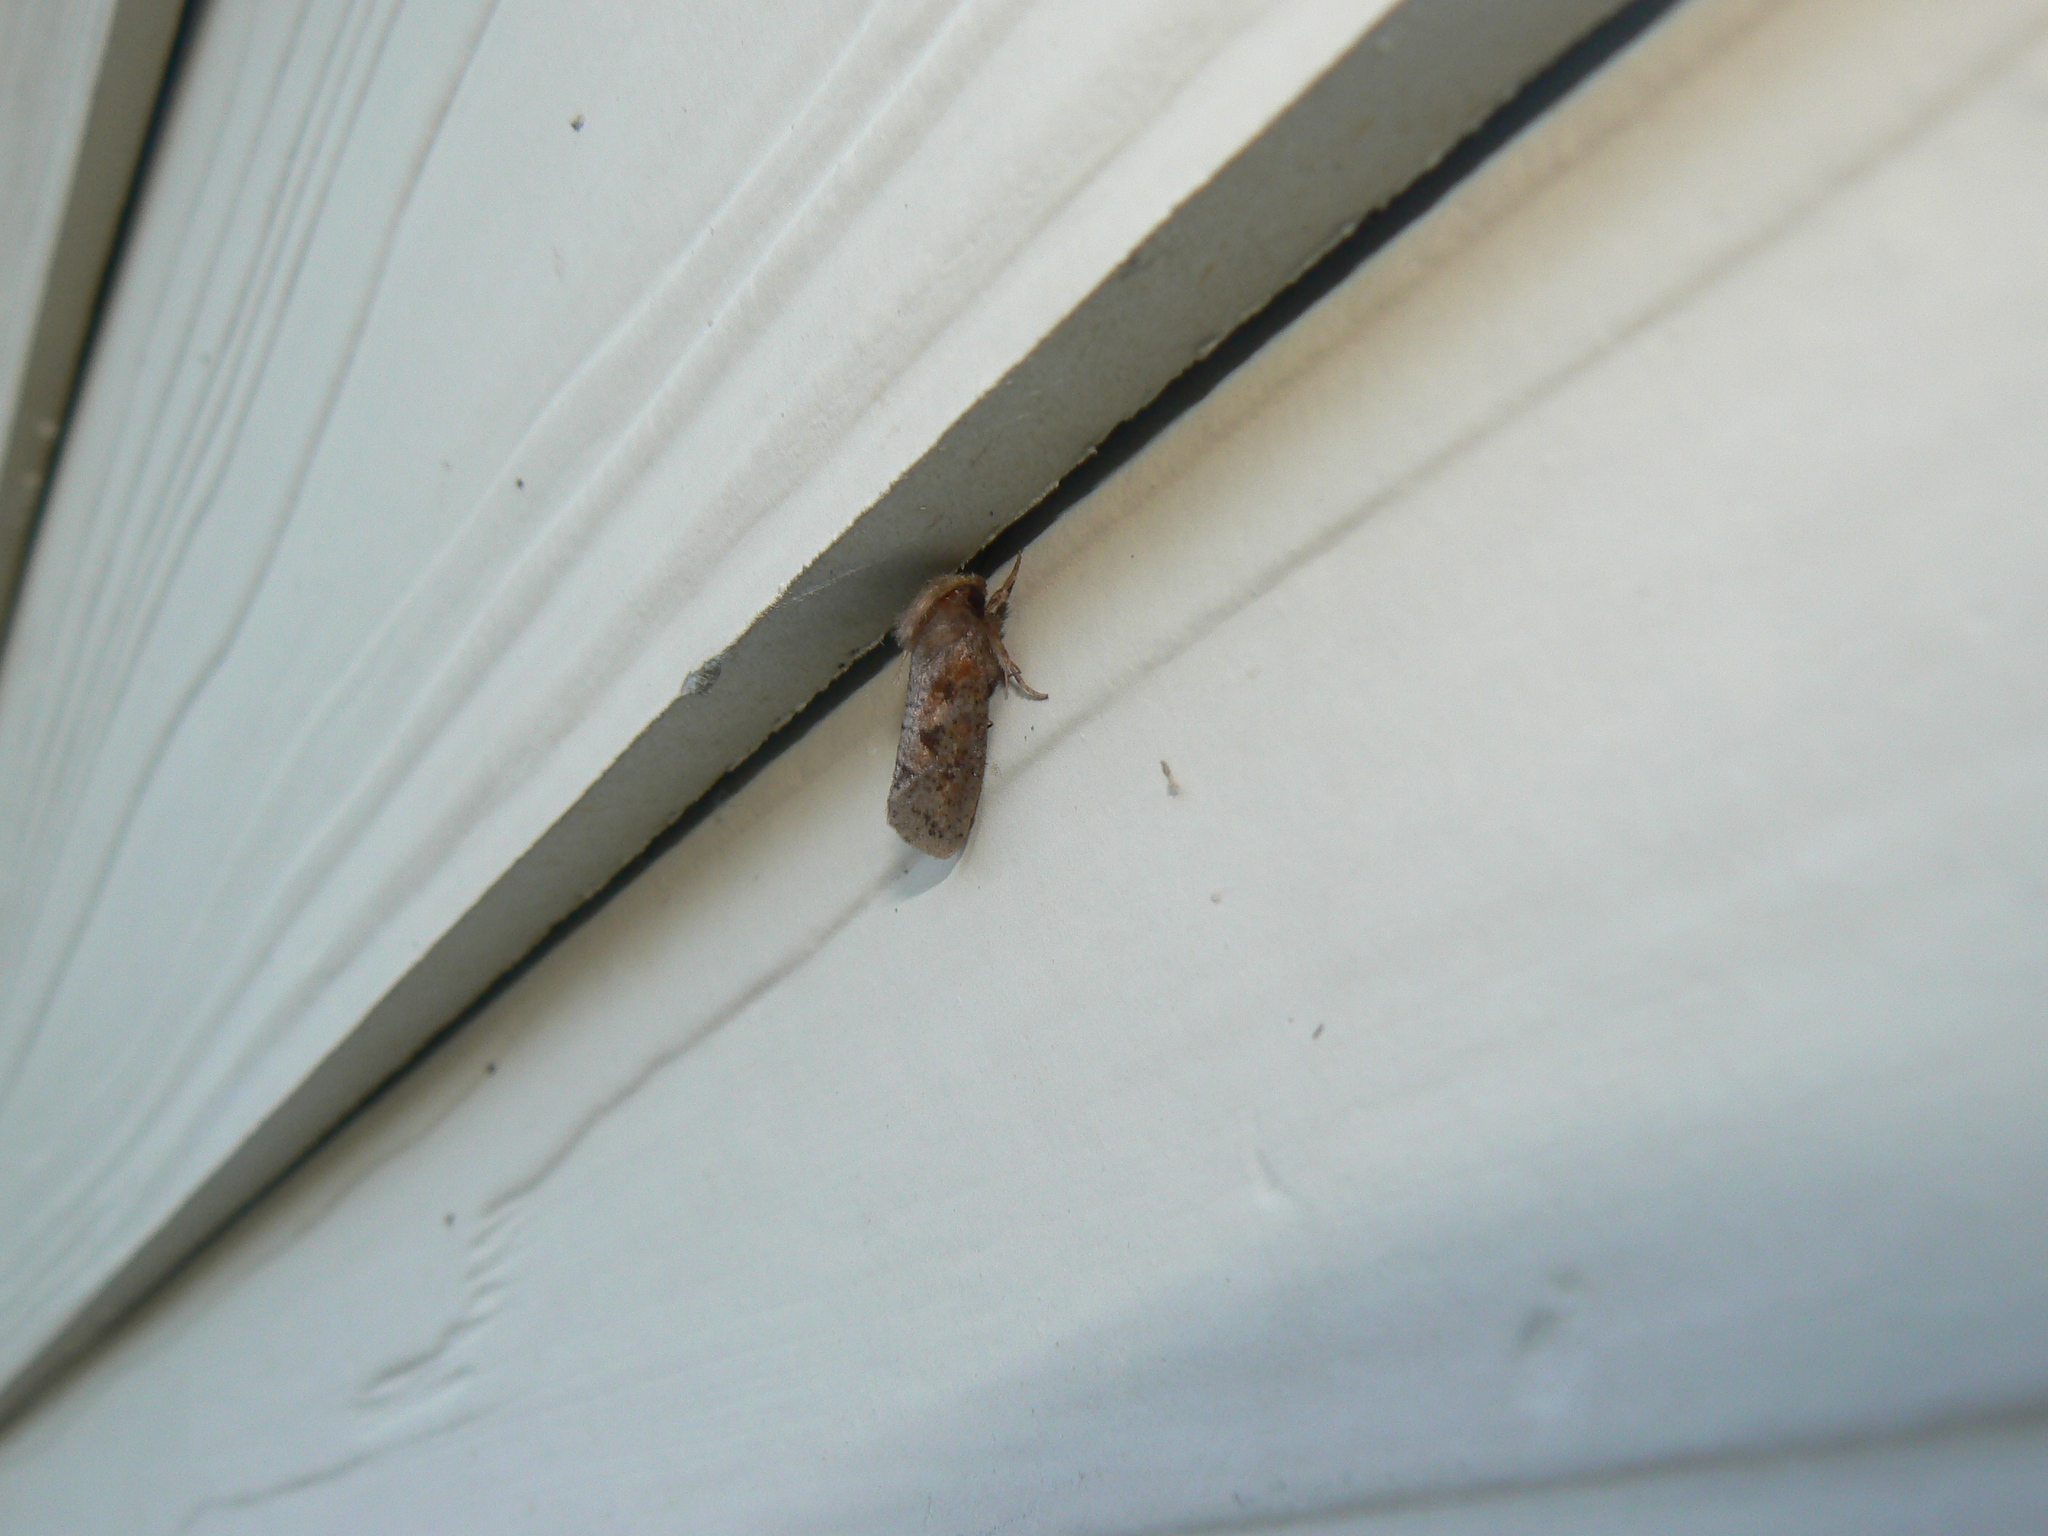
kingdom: Animalia
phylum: Arthropoda
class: Insecta
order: Lepidoptera
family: Tineidae
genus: Acrolophus
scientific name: Acrolophus plumifrontella
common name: Eastern grass tubeworm moth
